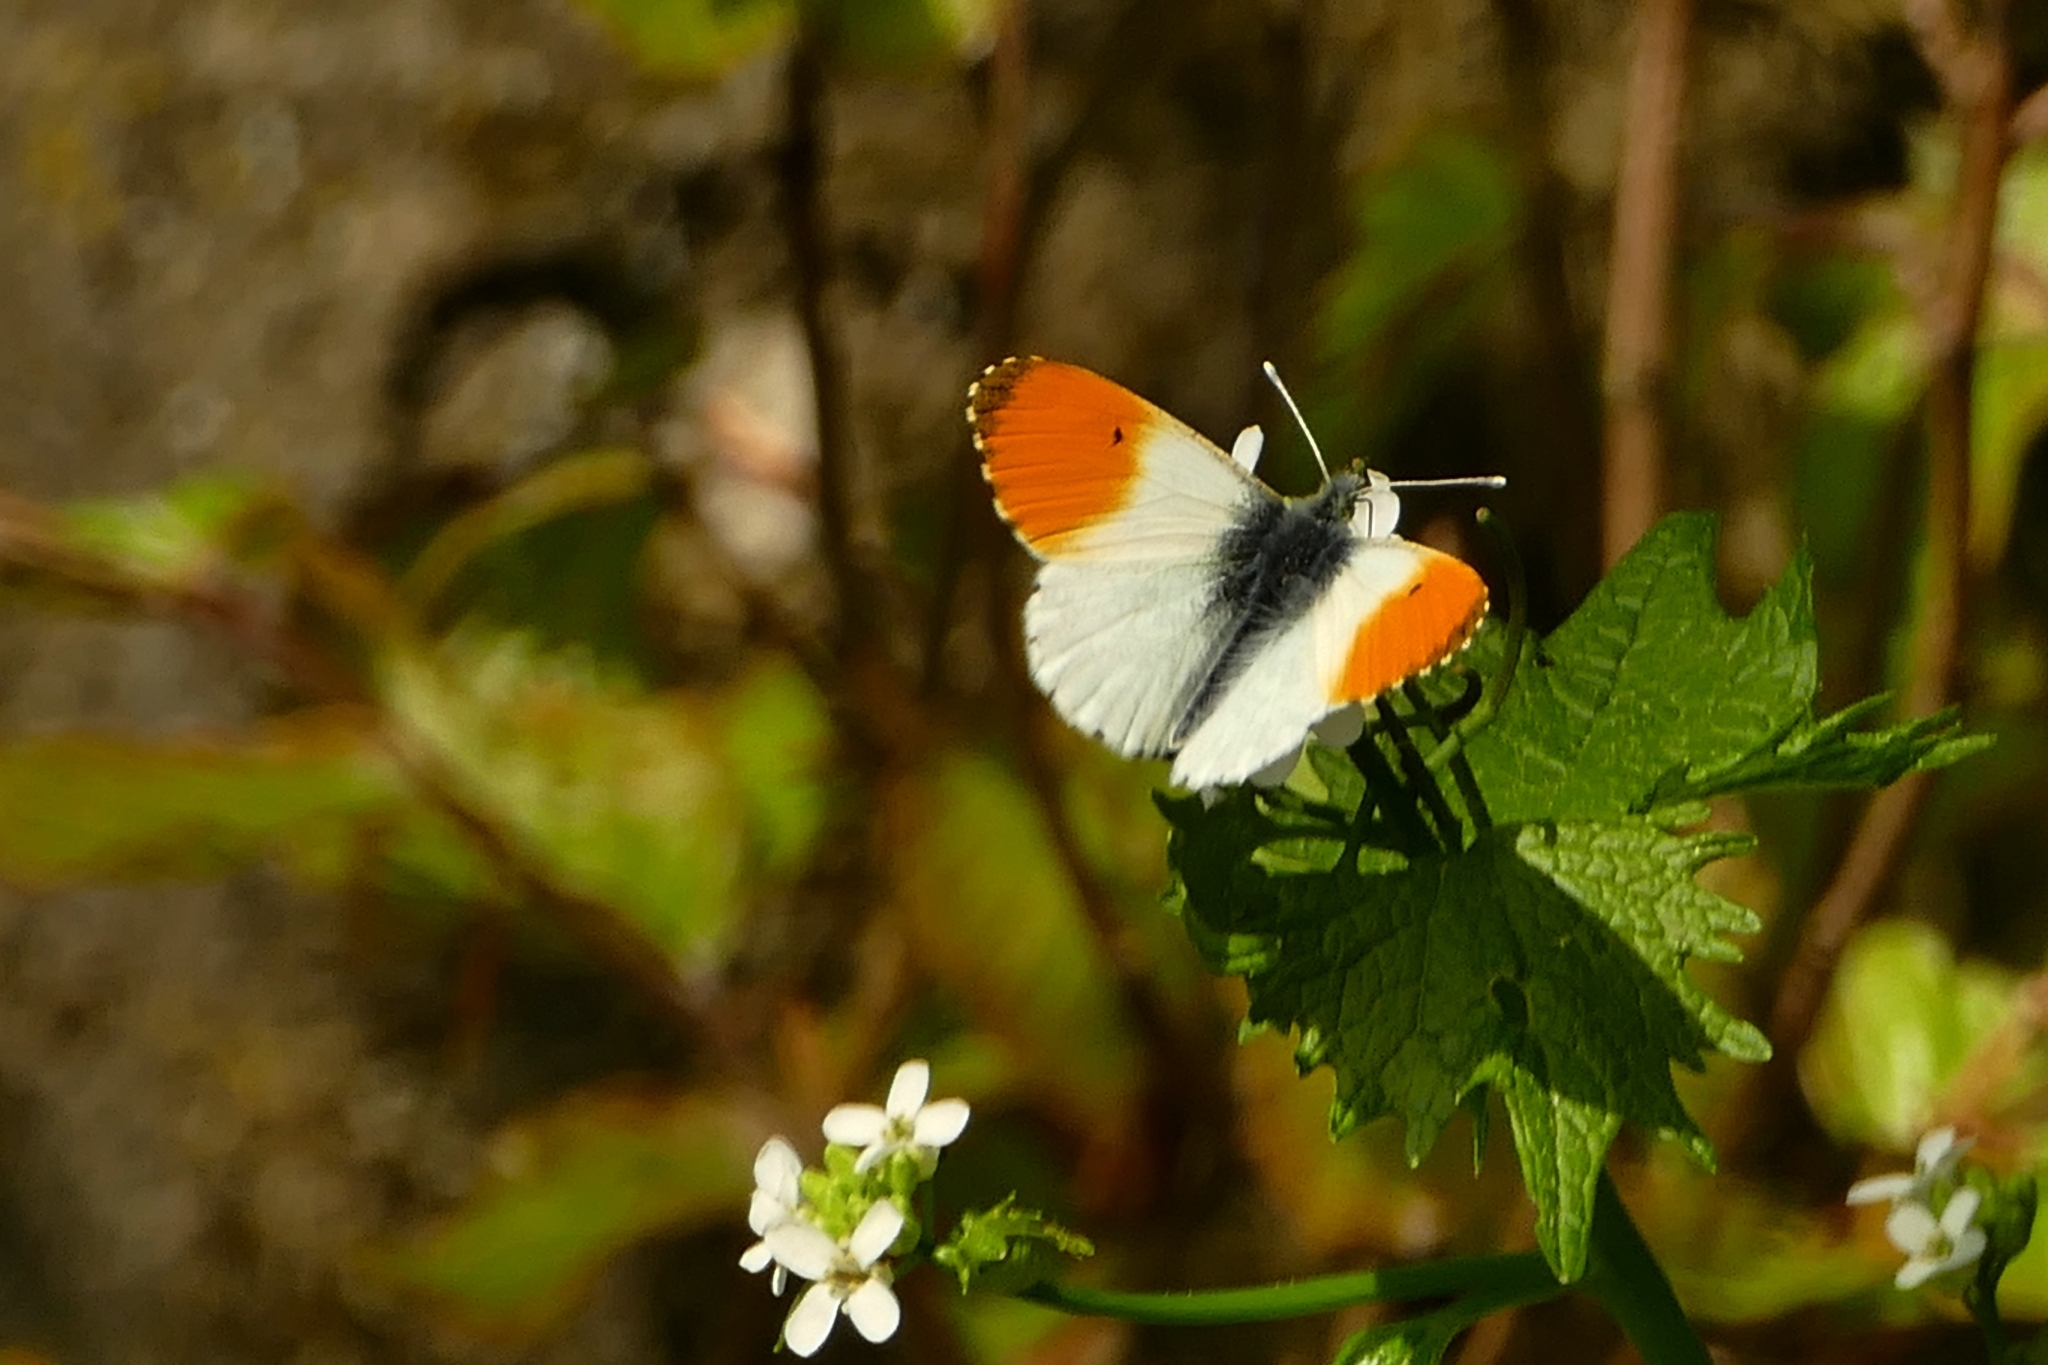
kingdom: Animalia
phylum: Arthropoda
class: Insecta
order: Lepidoptera
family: Pieridae
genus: Anthocharis
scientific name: Anthocharis cardamines
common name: Orange-tip
